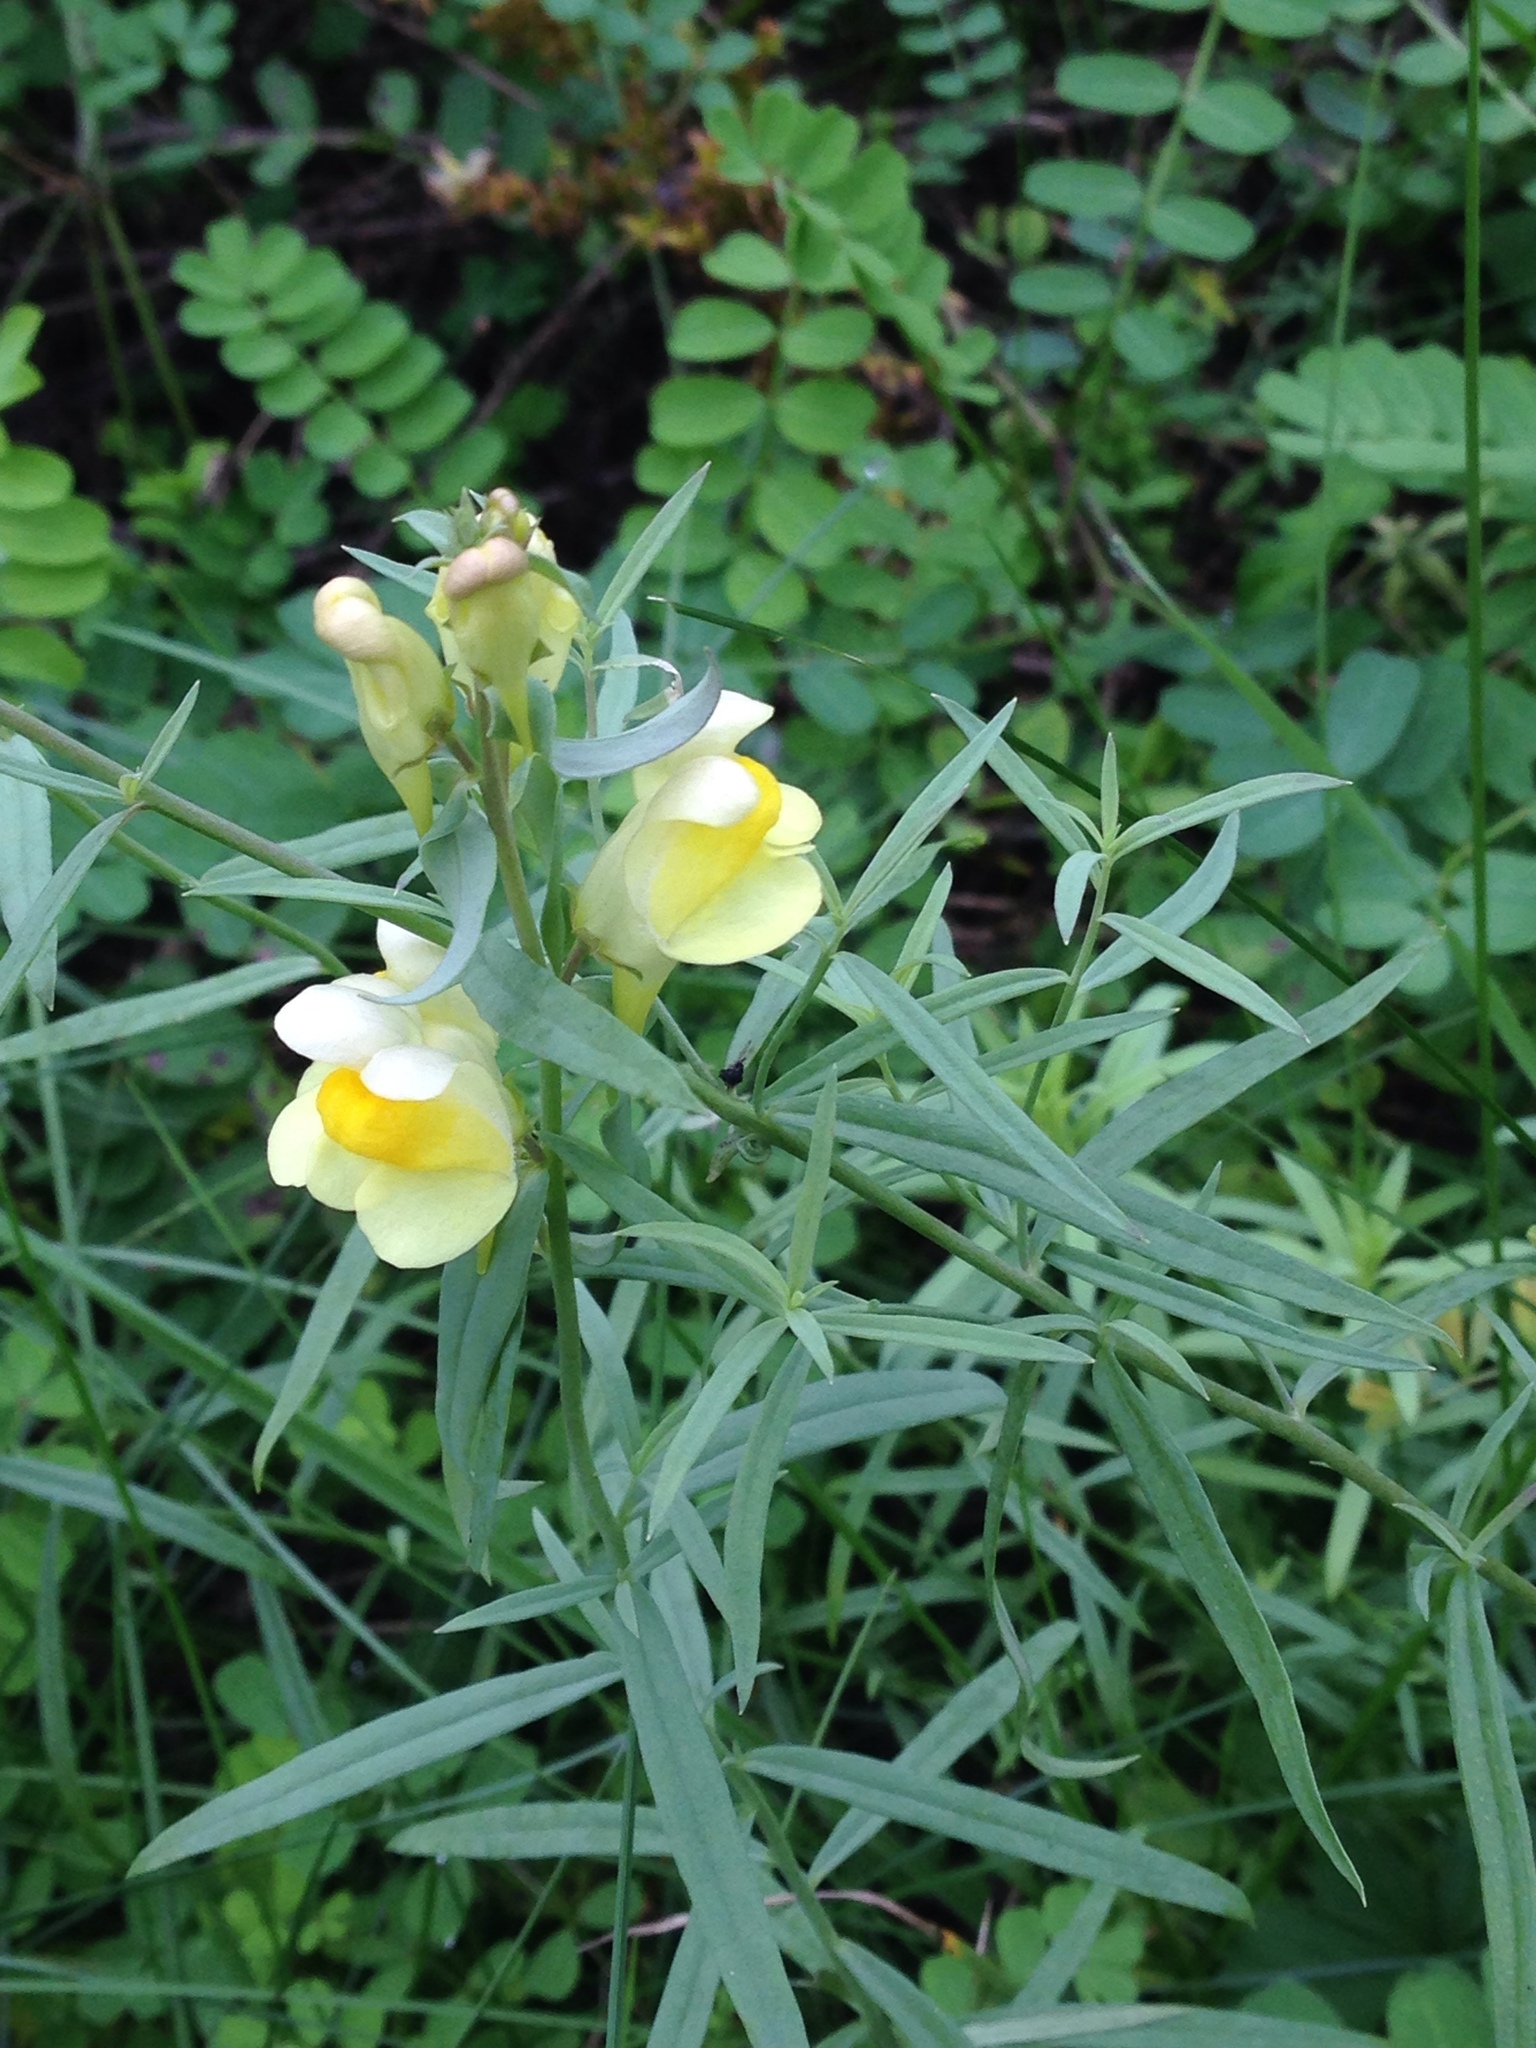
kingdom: Plantae
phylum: Tracheophyta
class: Magnoliopsida
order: Lamiales
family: Plantaginaceae
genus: Linaria
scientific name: Linaria vulgaris
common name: Butter and eggs
